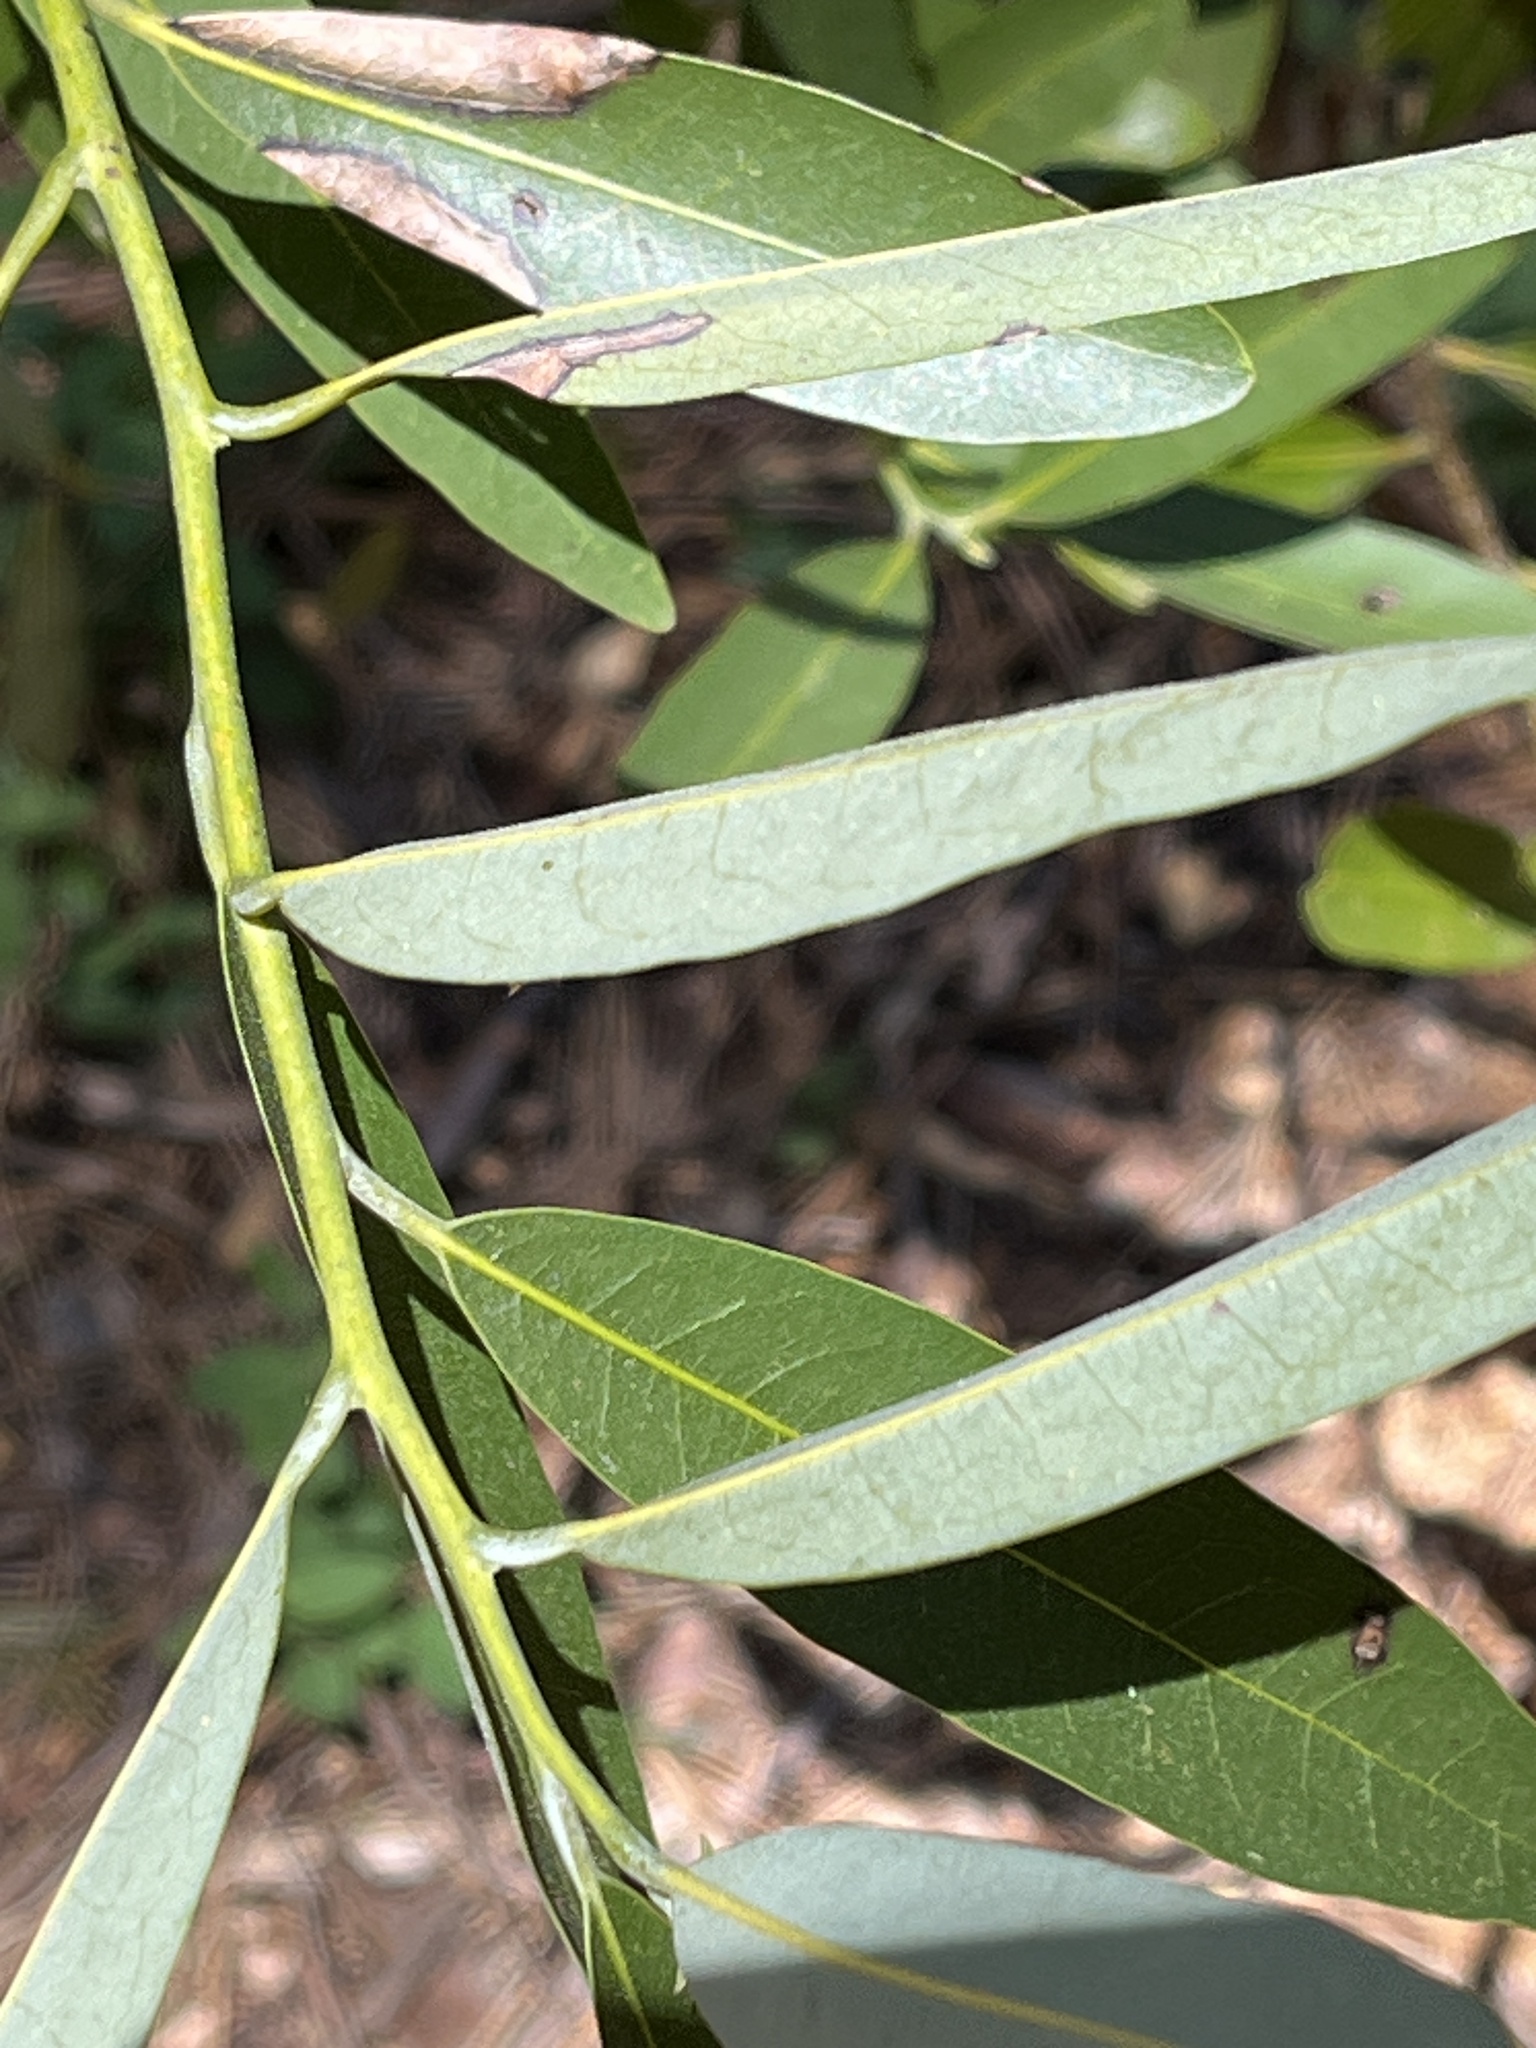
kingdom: Plantae
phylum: Tracheophyta
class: Magnoliopsida
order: Laurales
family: Lauraceae
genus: Umbellularia
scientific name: Umbellularia californica
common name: California bay
